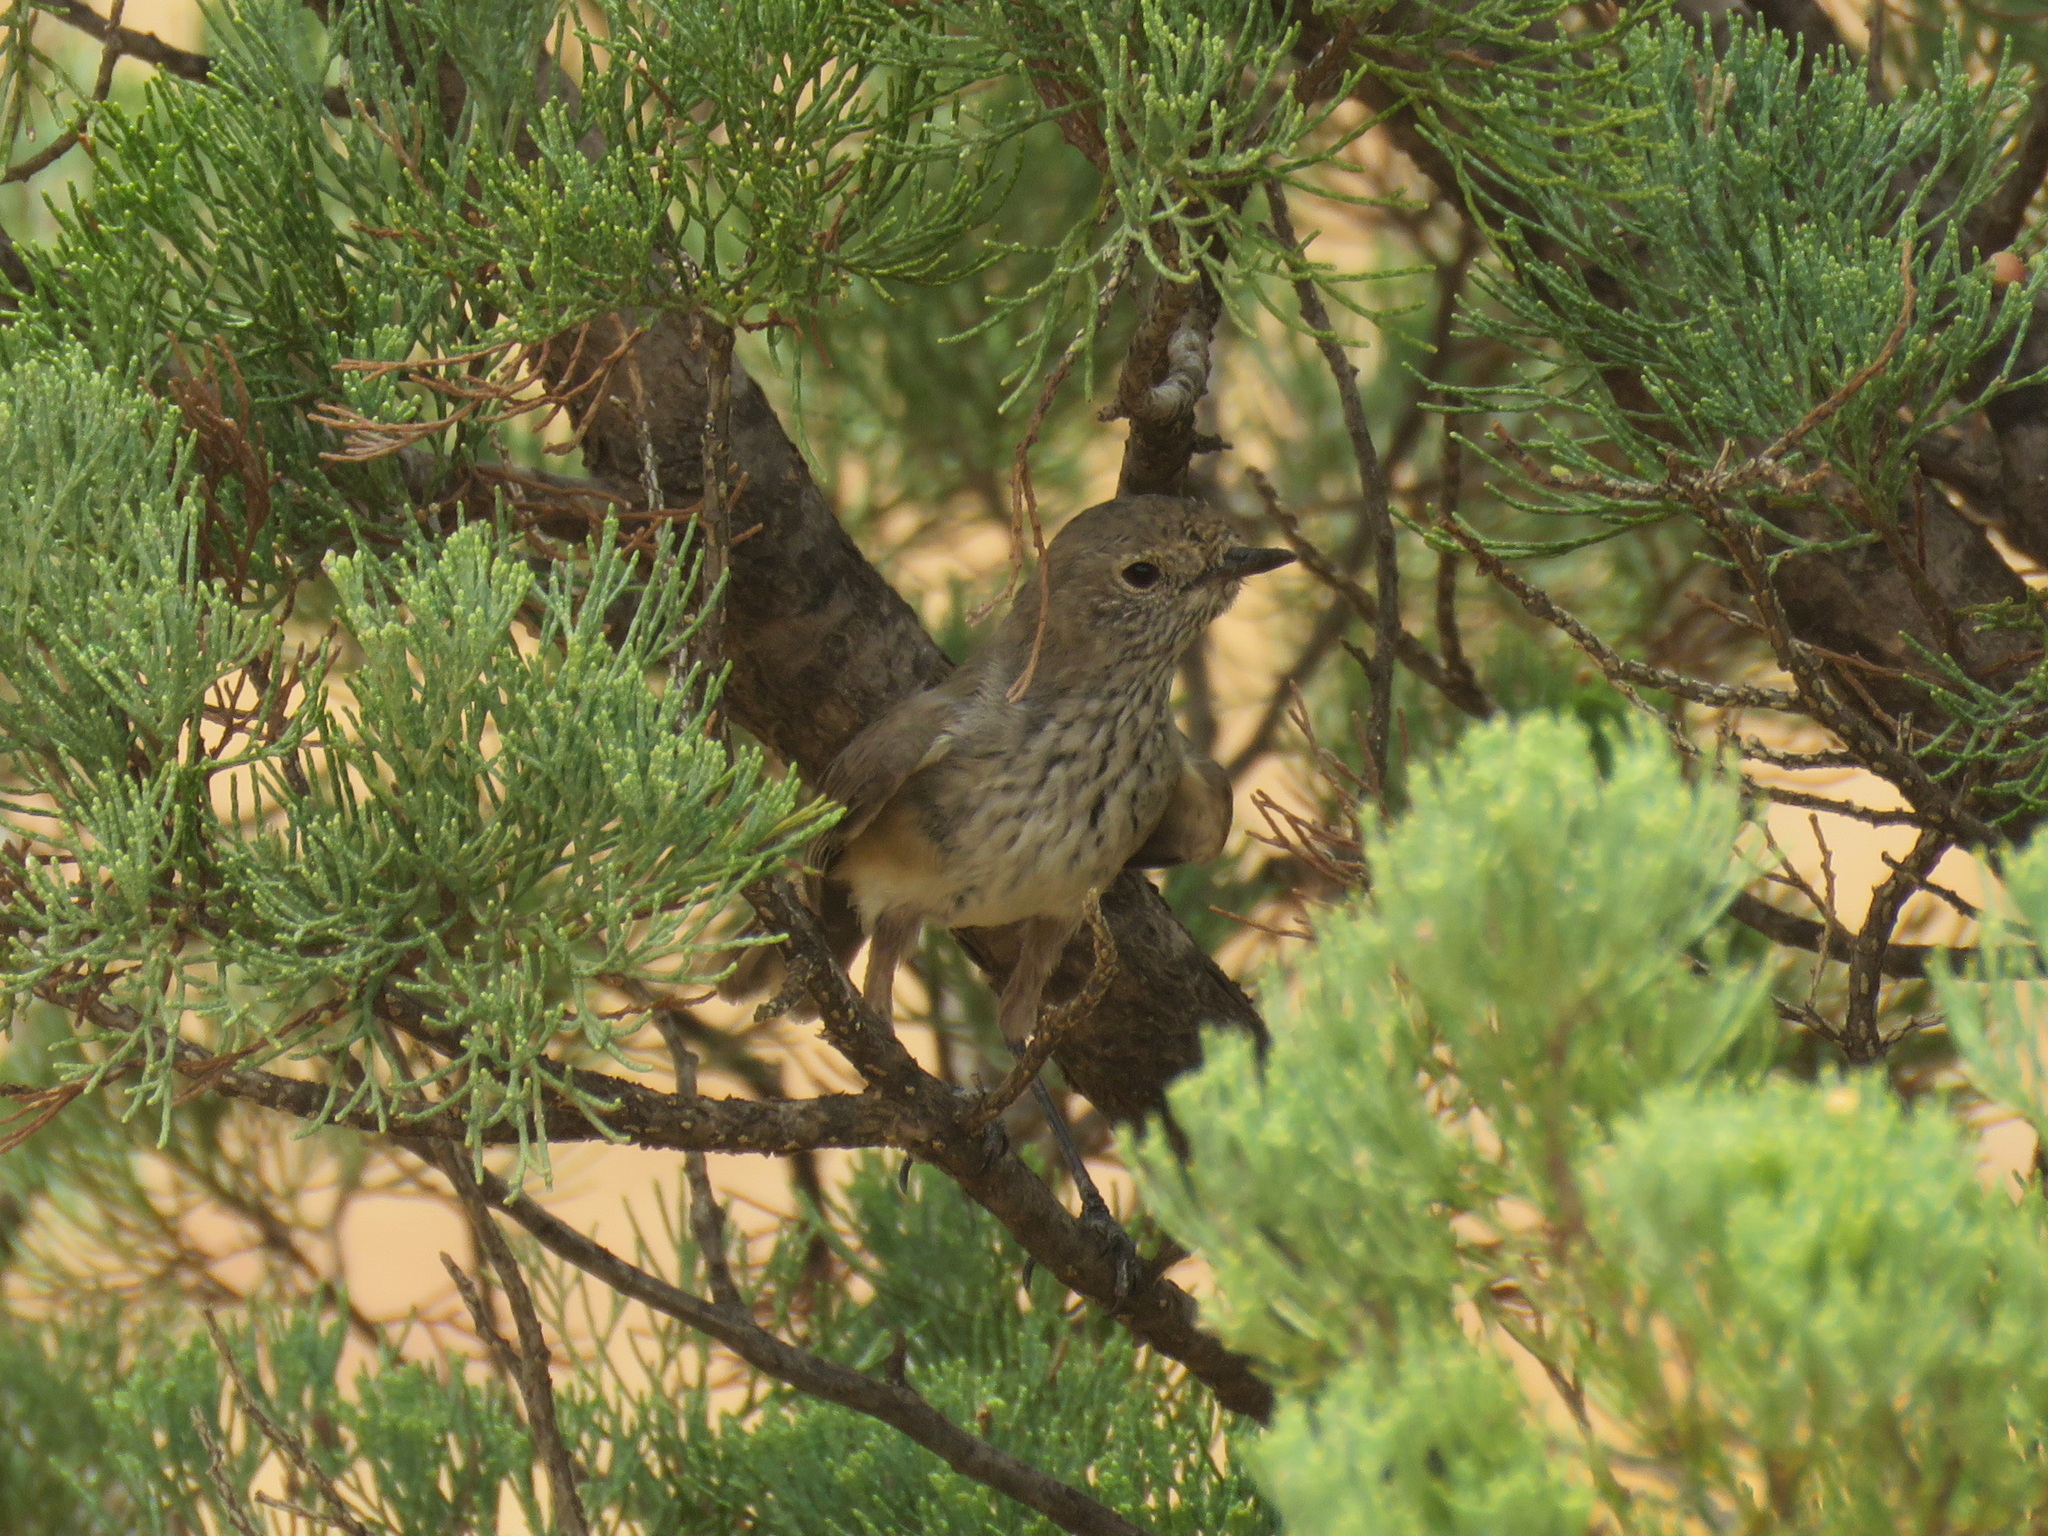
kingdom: Animalia
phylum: Chordata
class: Aves
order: Passeriformes
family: Acanthizidae
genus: Acanthiza
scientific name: Acanthiza apicalis
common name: Inland thornbill
